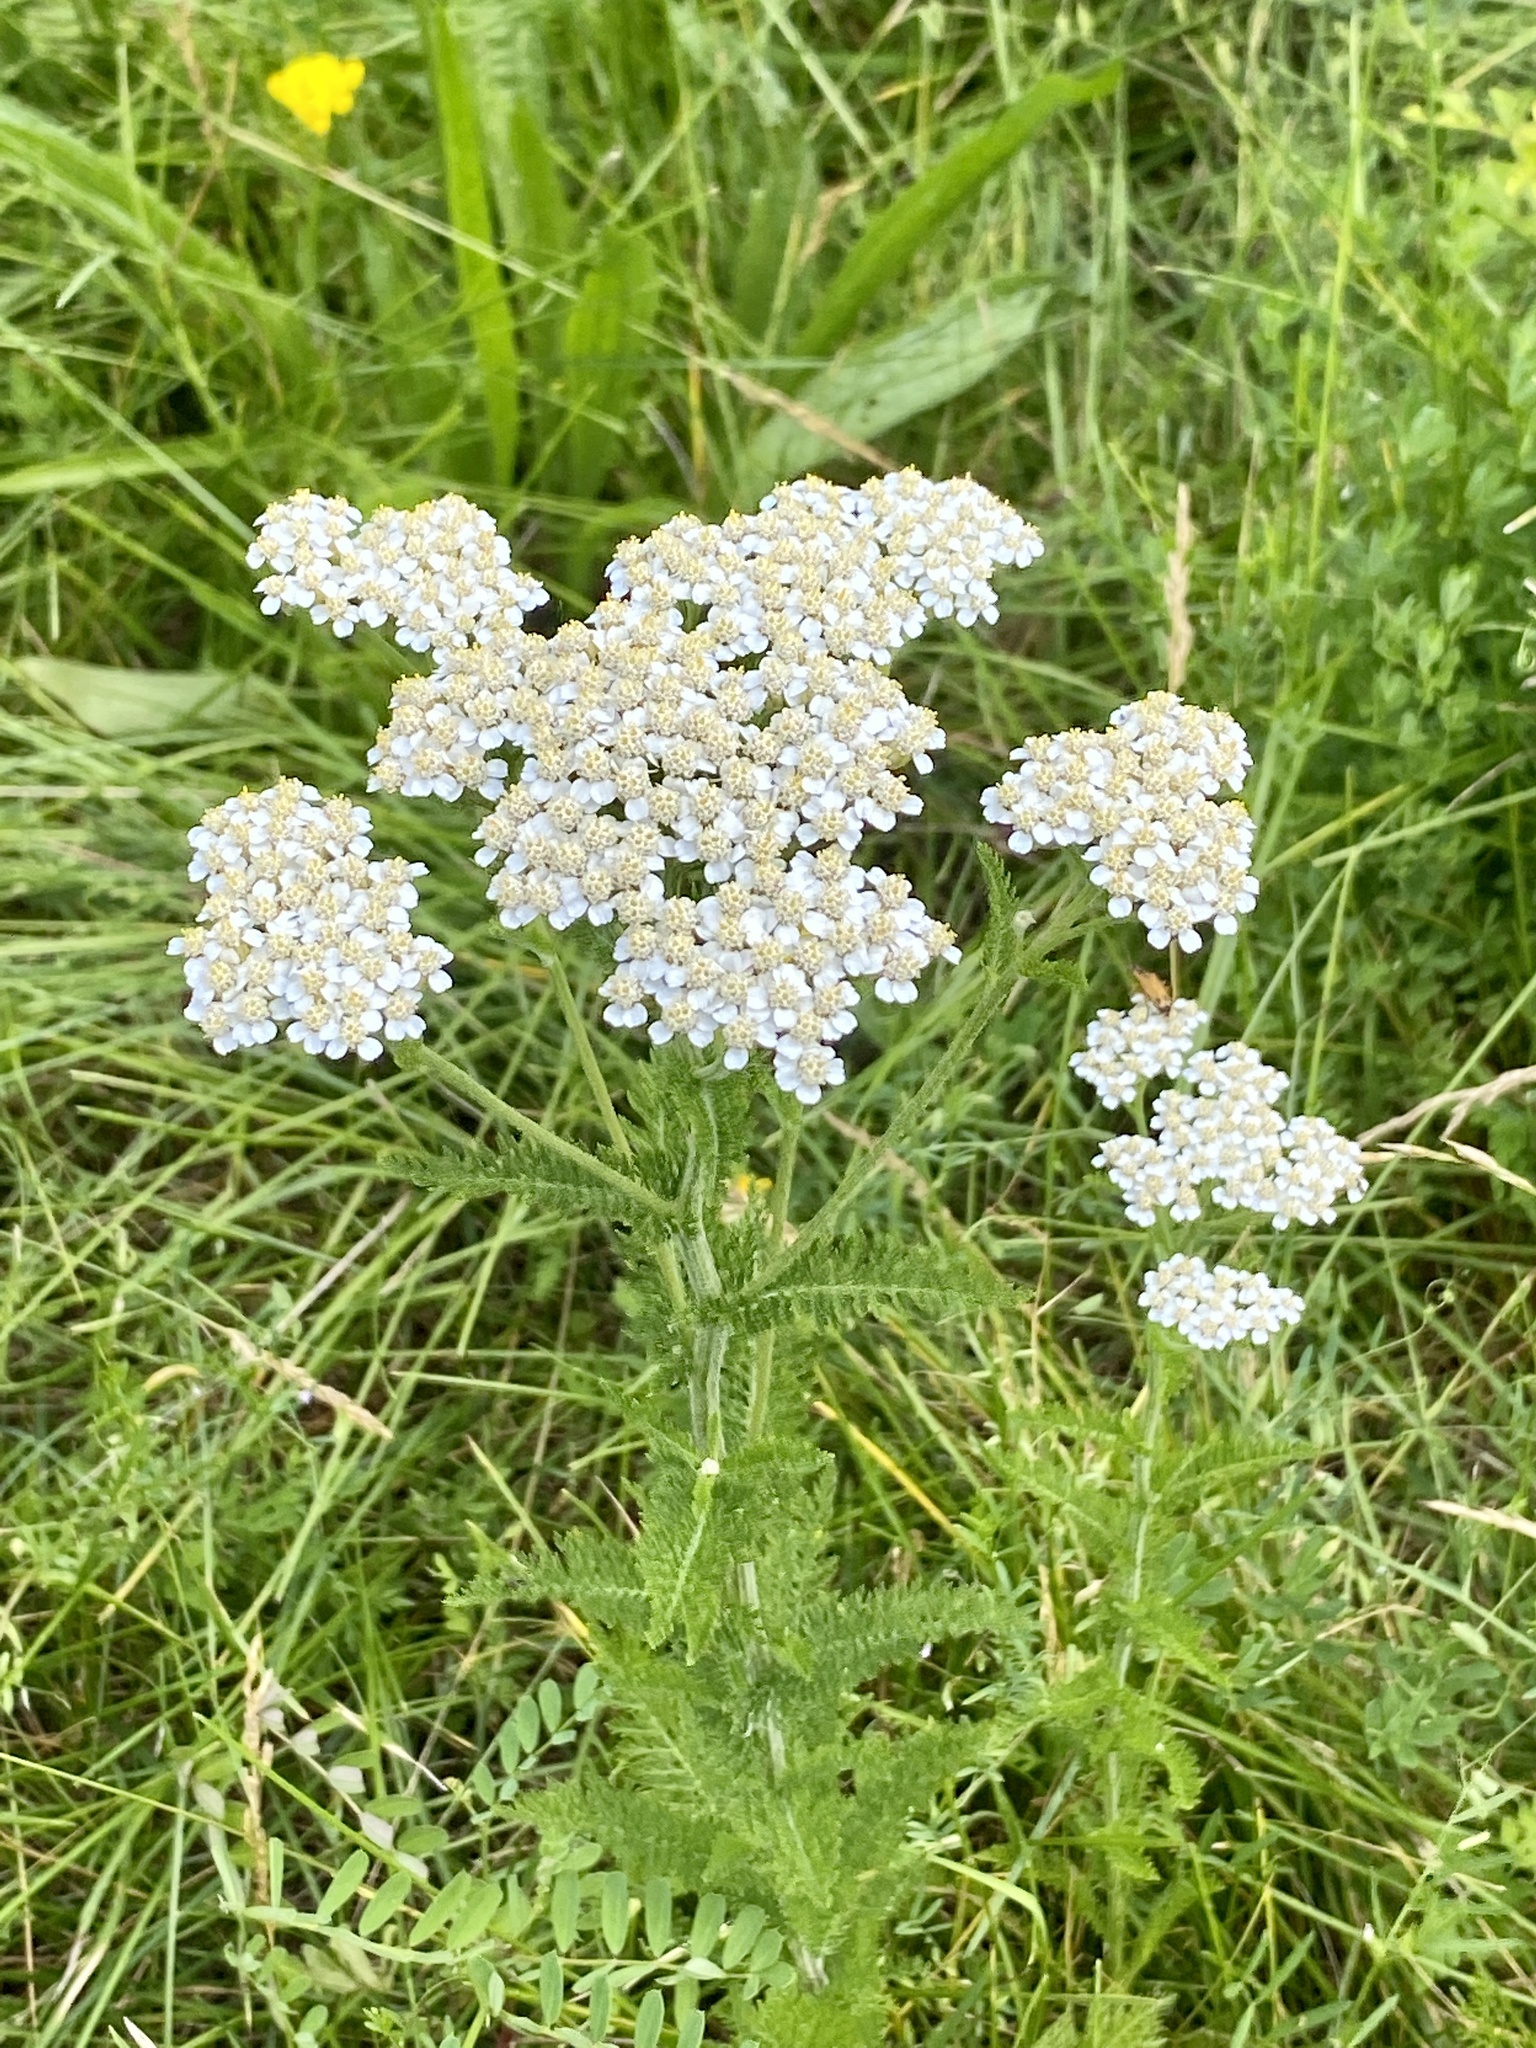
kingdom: Plantae
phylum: Tracheophyta
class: Magnoliopsida
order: Asterales
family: Asteraceae
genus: Achillea
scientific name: Achillea millefolium
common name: Yarrow
